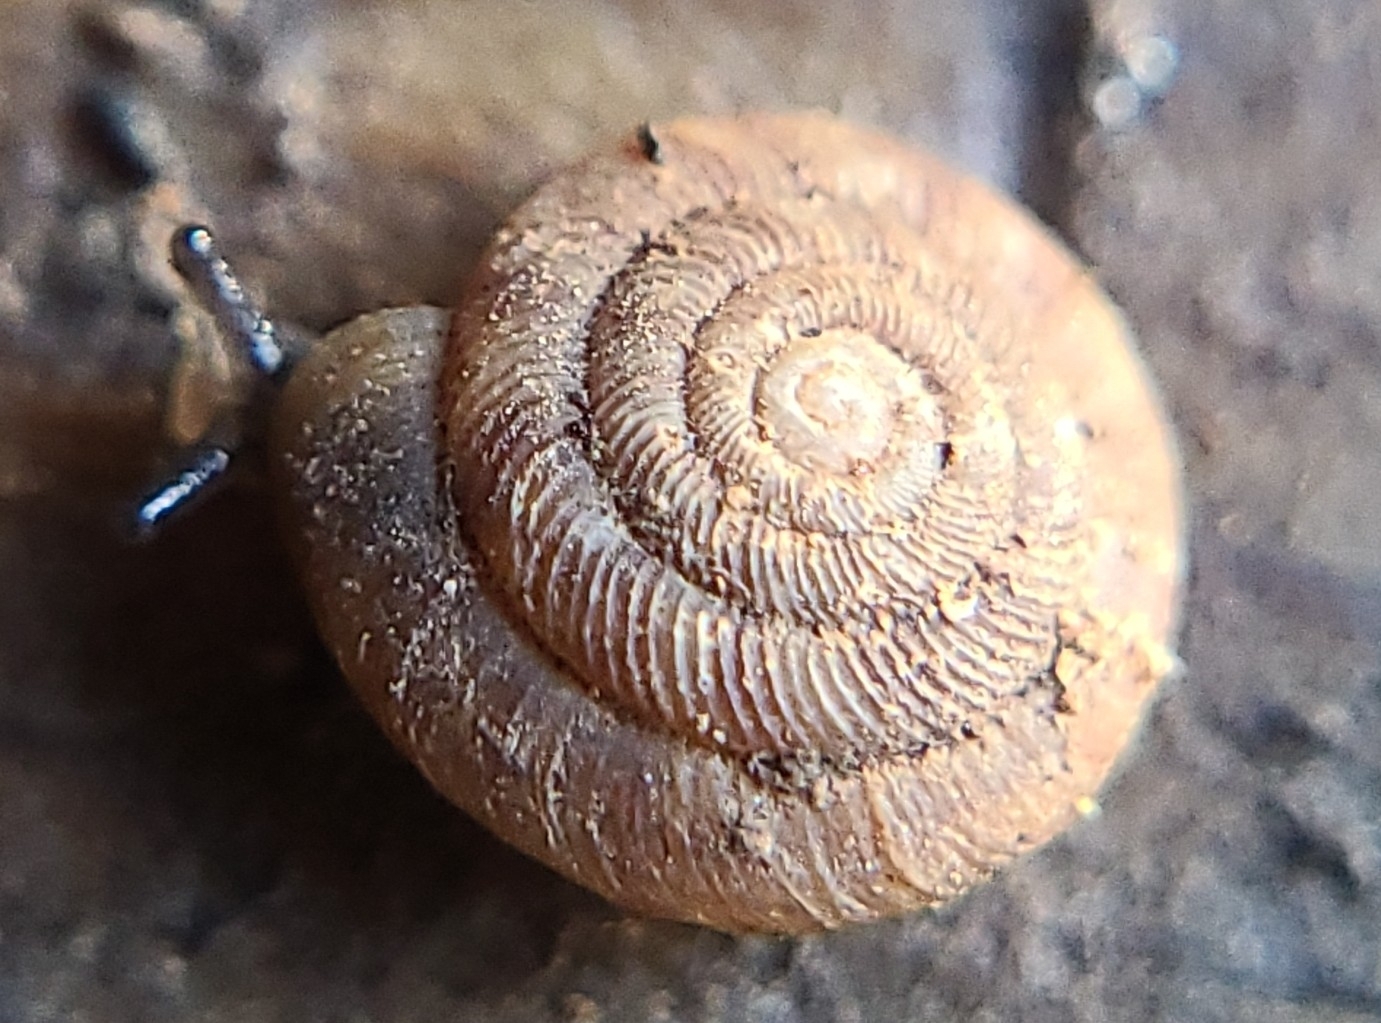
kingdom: Animalia
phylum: Mollusca
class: Gastropoda
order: Stylommatophora
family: Discidae
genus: Discus
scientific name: Discus rotundatus
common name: Rounded snail
